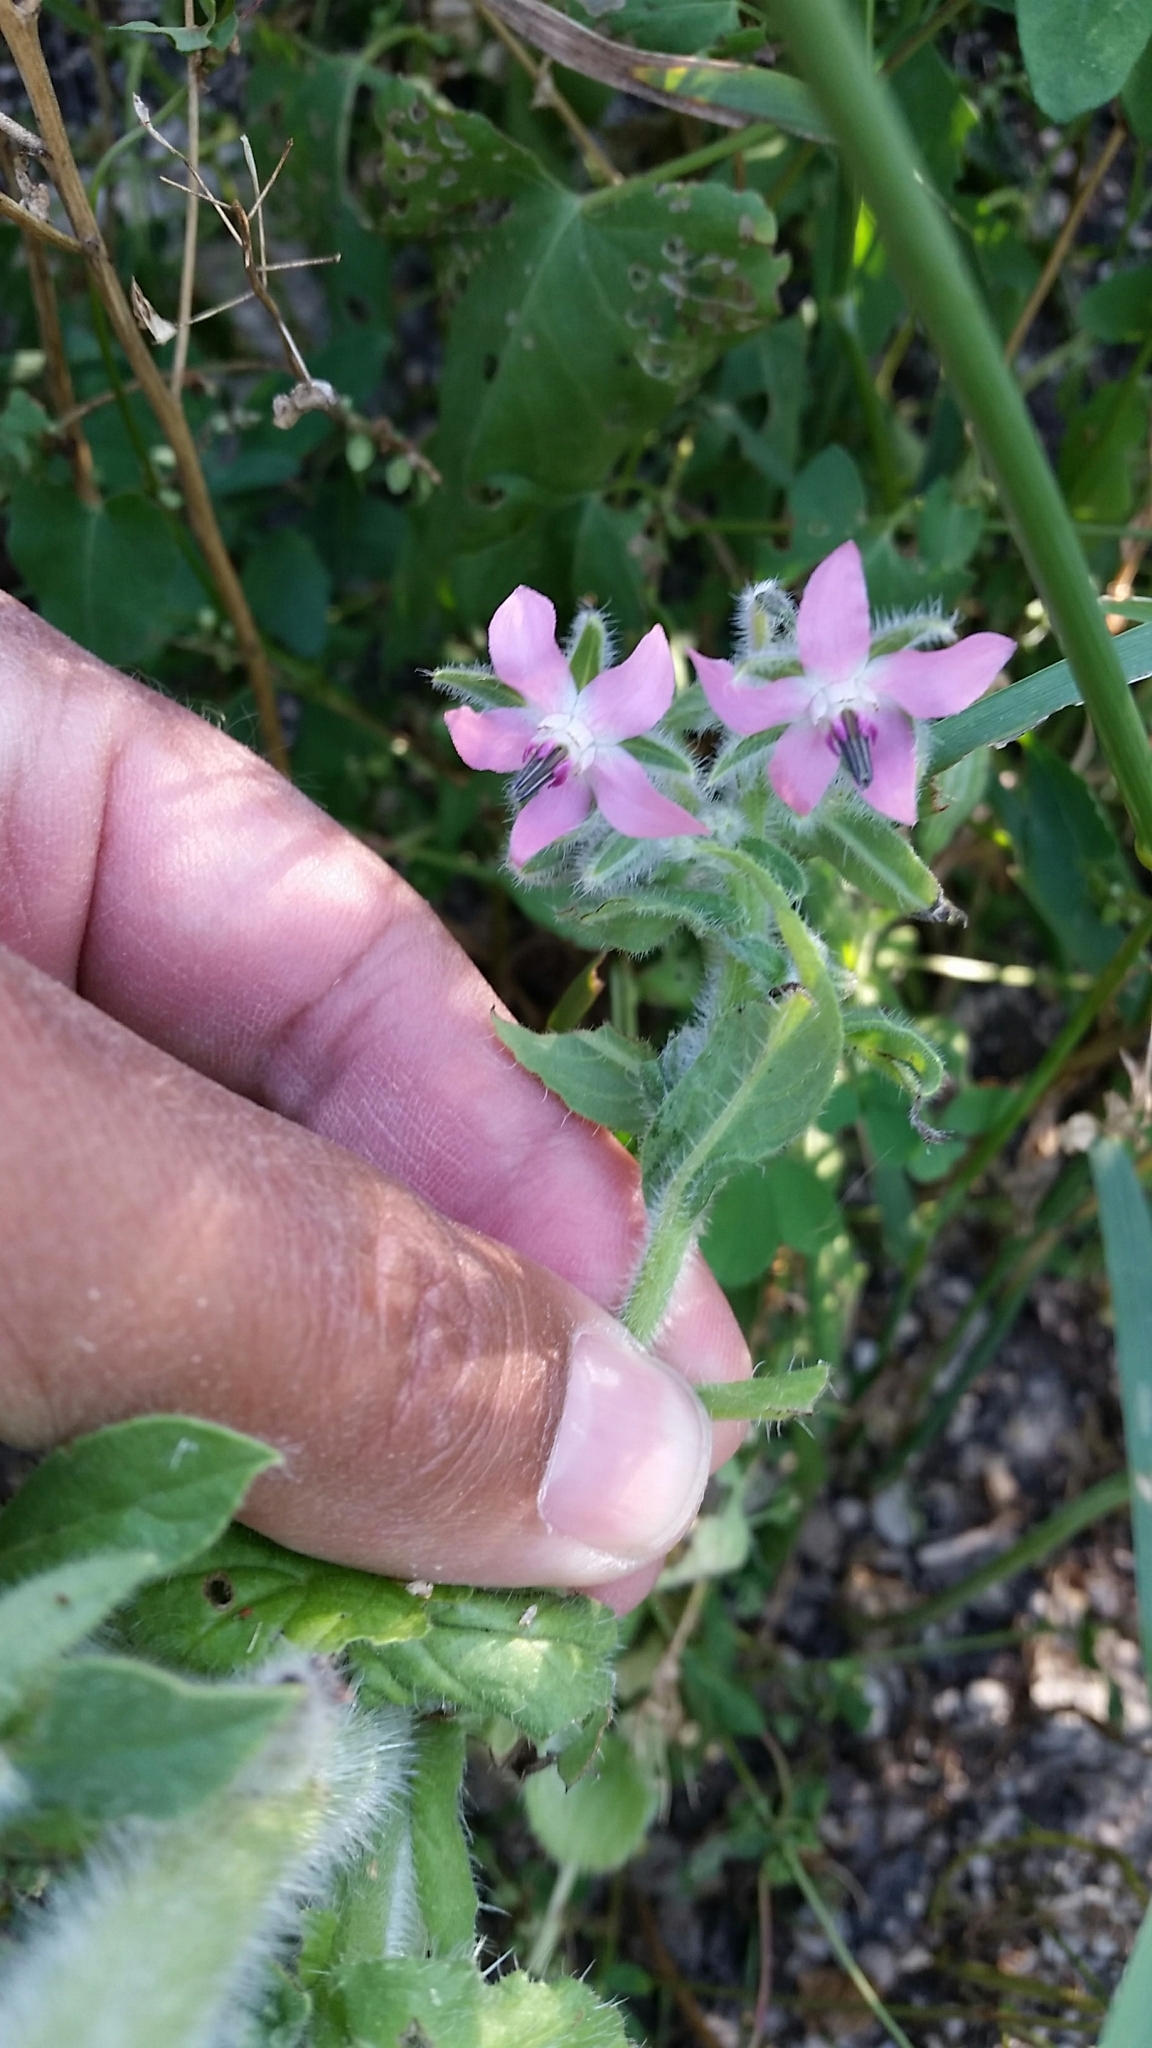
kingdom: Plantae
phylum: Tracheophyta
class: Magnoliopsida
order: Boraginales
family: Boraginaceae
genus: Borago
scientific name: Borago officinalis
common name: Borage
